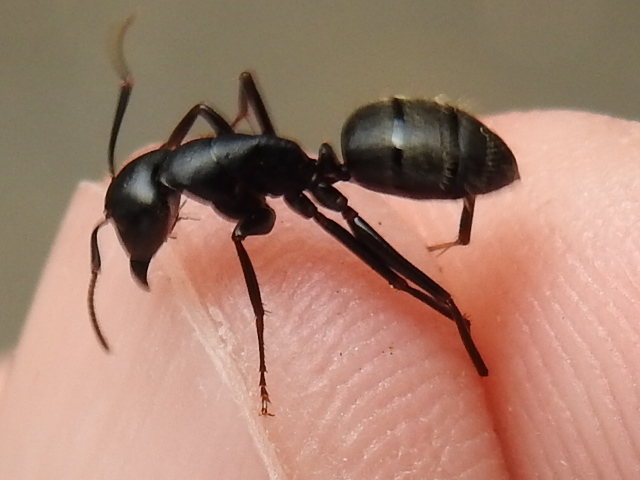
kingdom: Animalia
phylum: Arthropoda
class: Insecta
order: Hymenoptera
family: Formicidae
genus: Camponotus
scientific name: Camponotus pennsylvanicus
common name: Black carpenter ant
